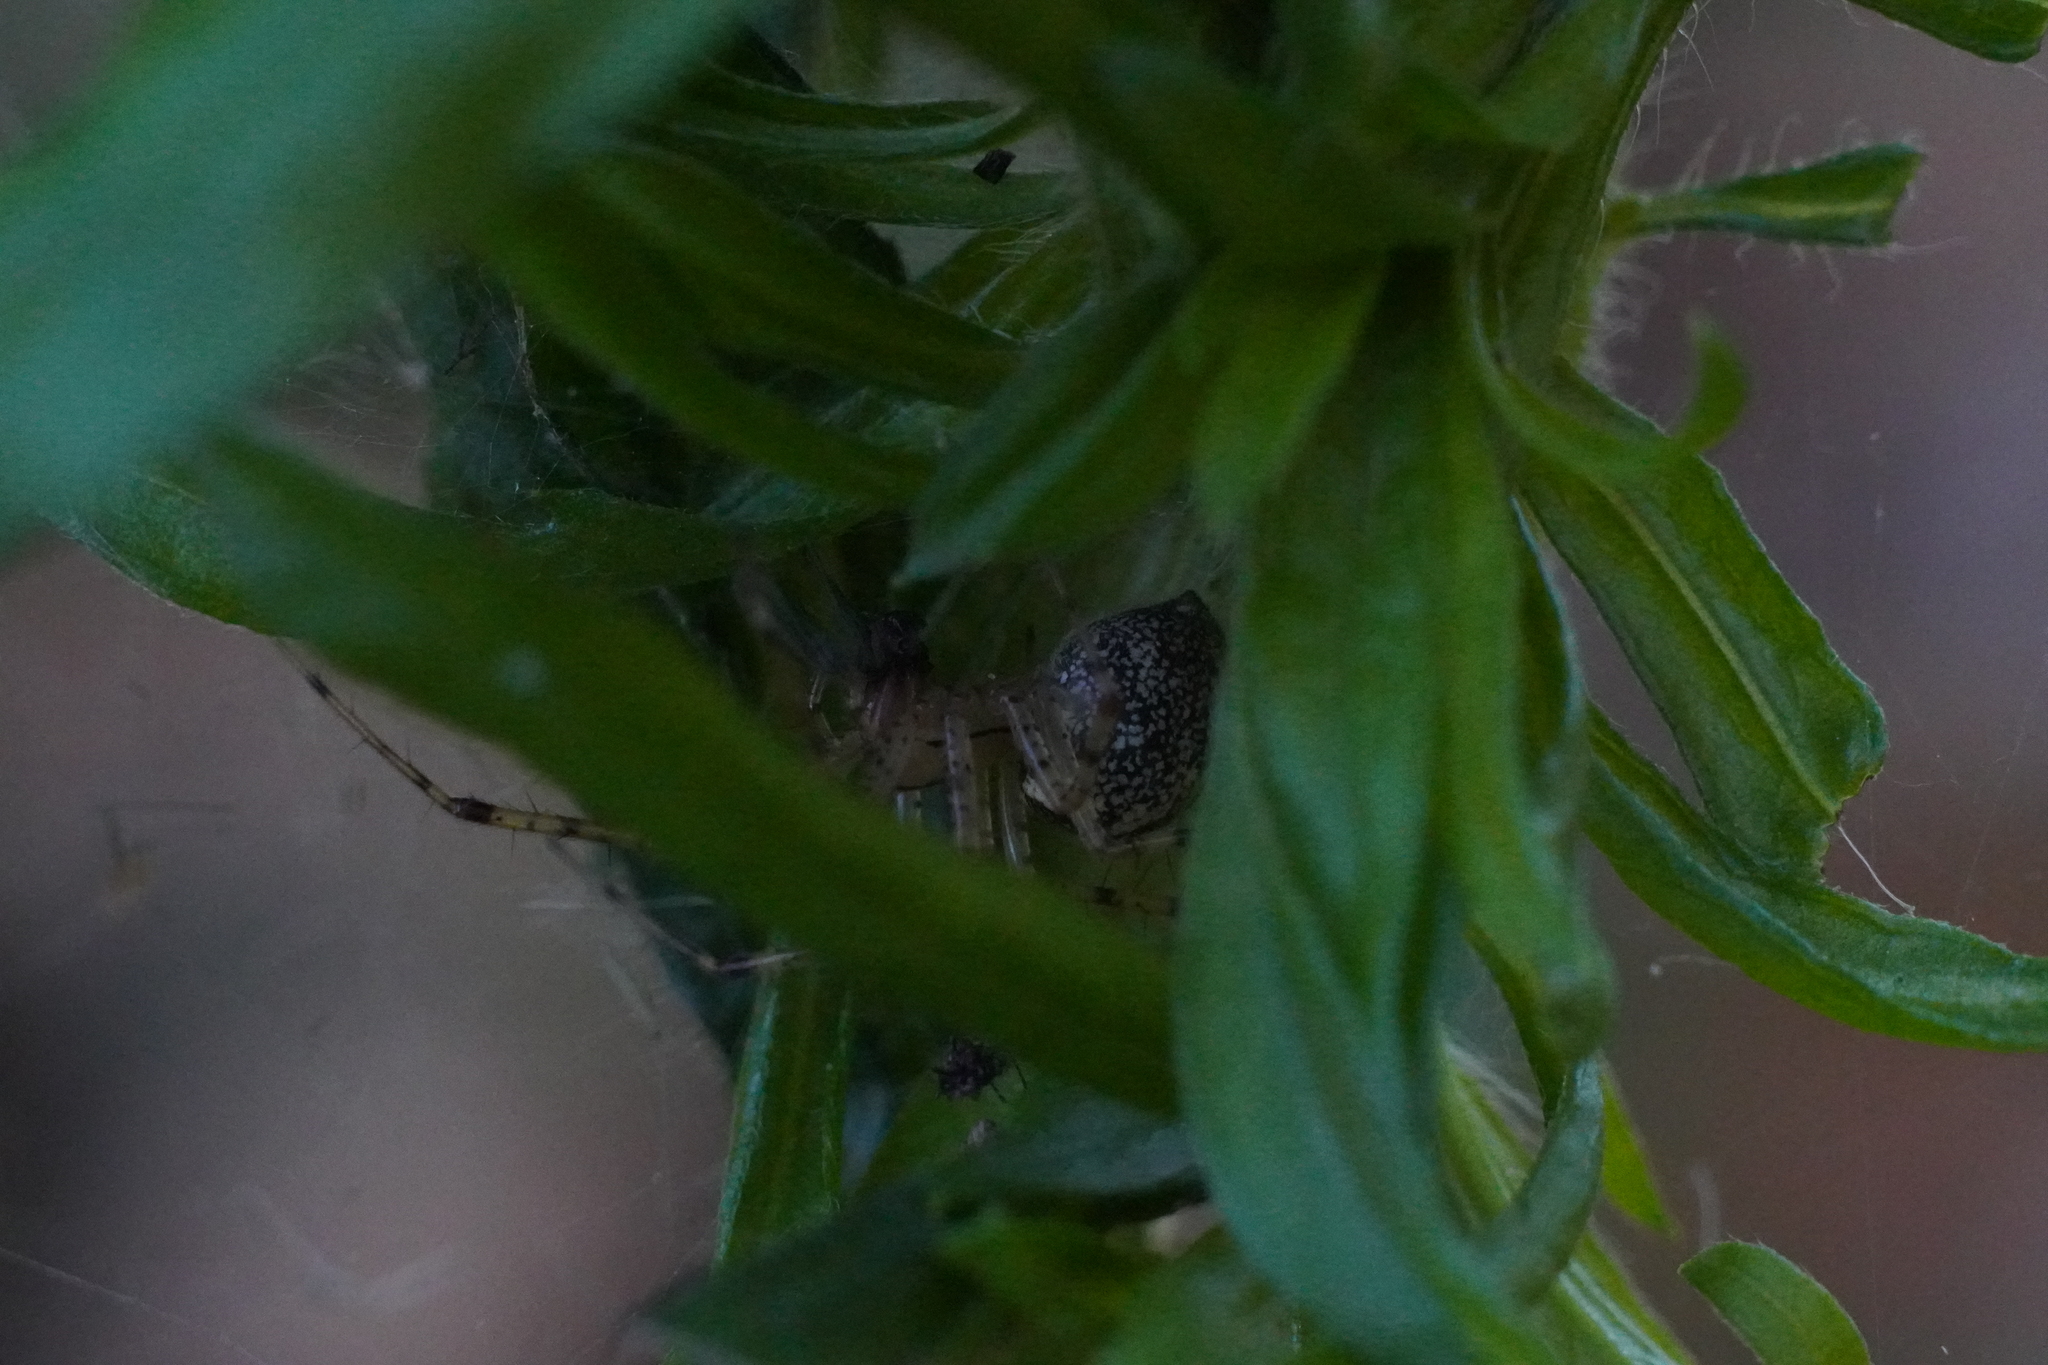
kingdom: Animalia
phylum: Arthropoda
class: Arachnida
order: Araneae
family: Linyphiidae
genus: Pityohyphantes
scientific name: Pityohyphantes costatus
